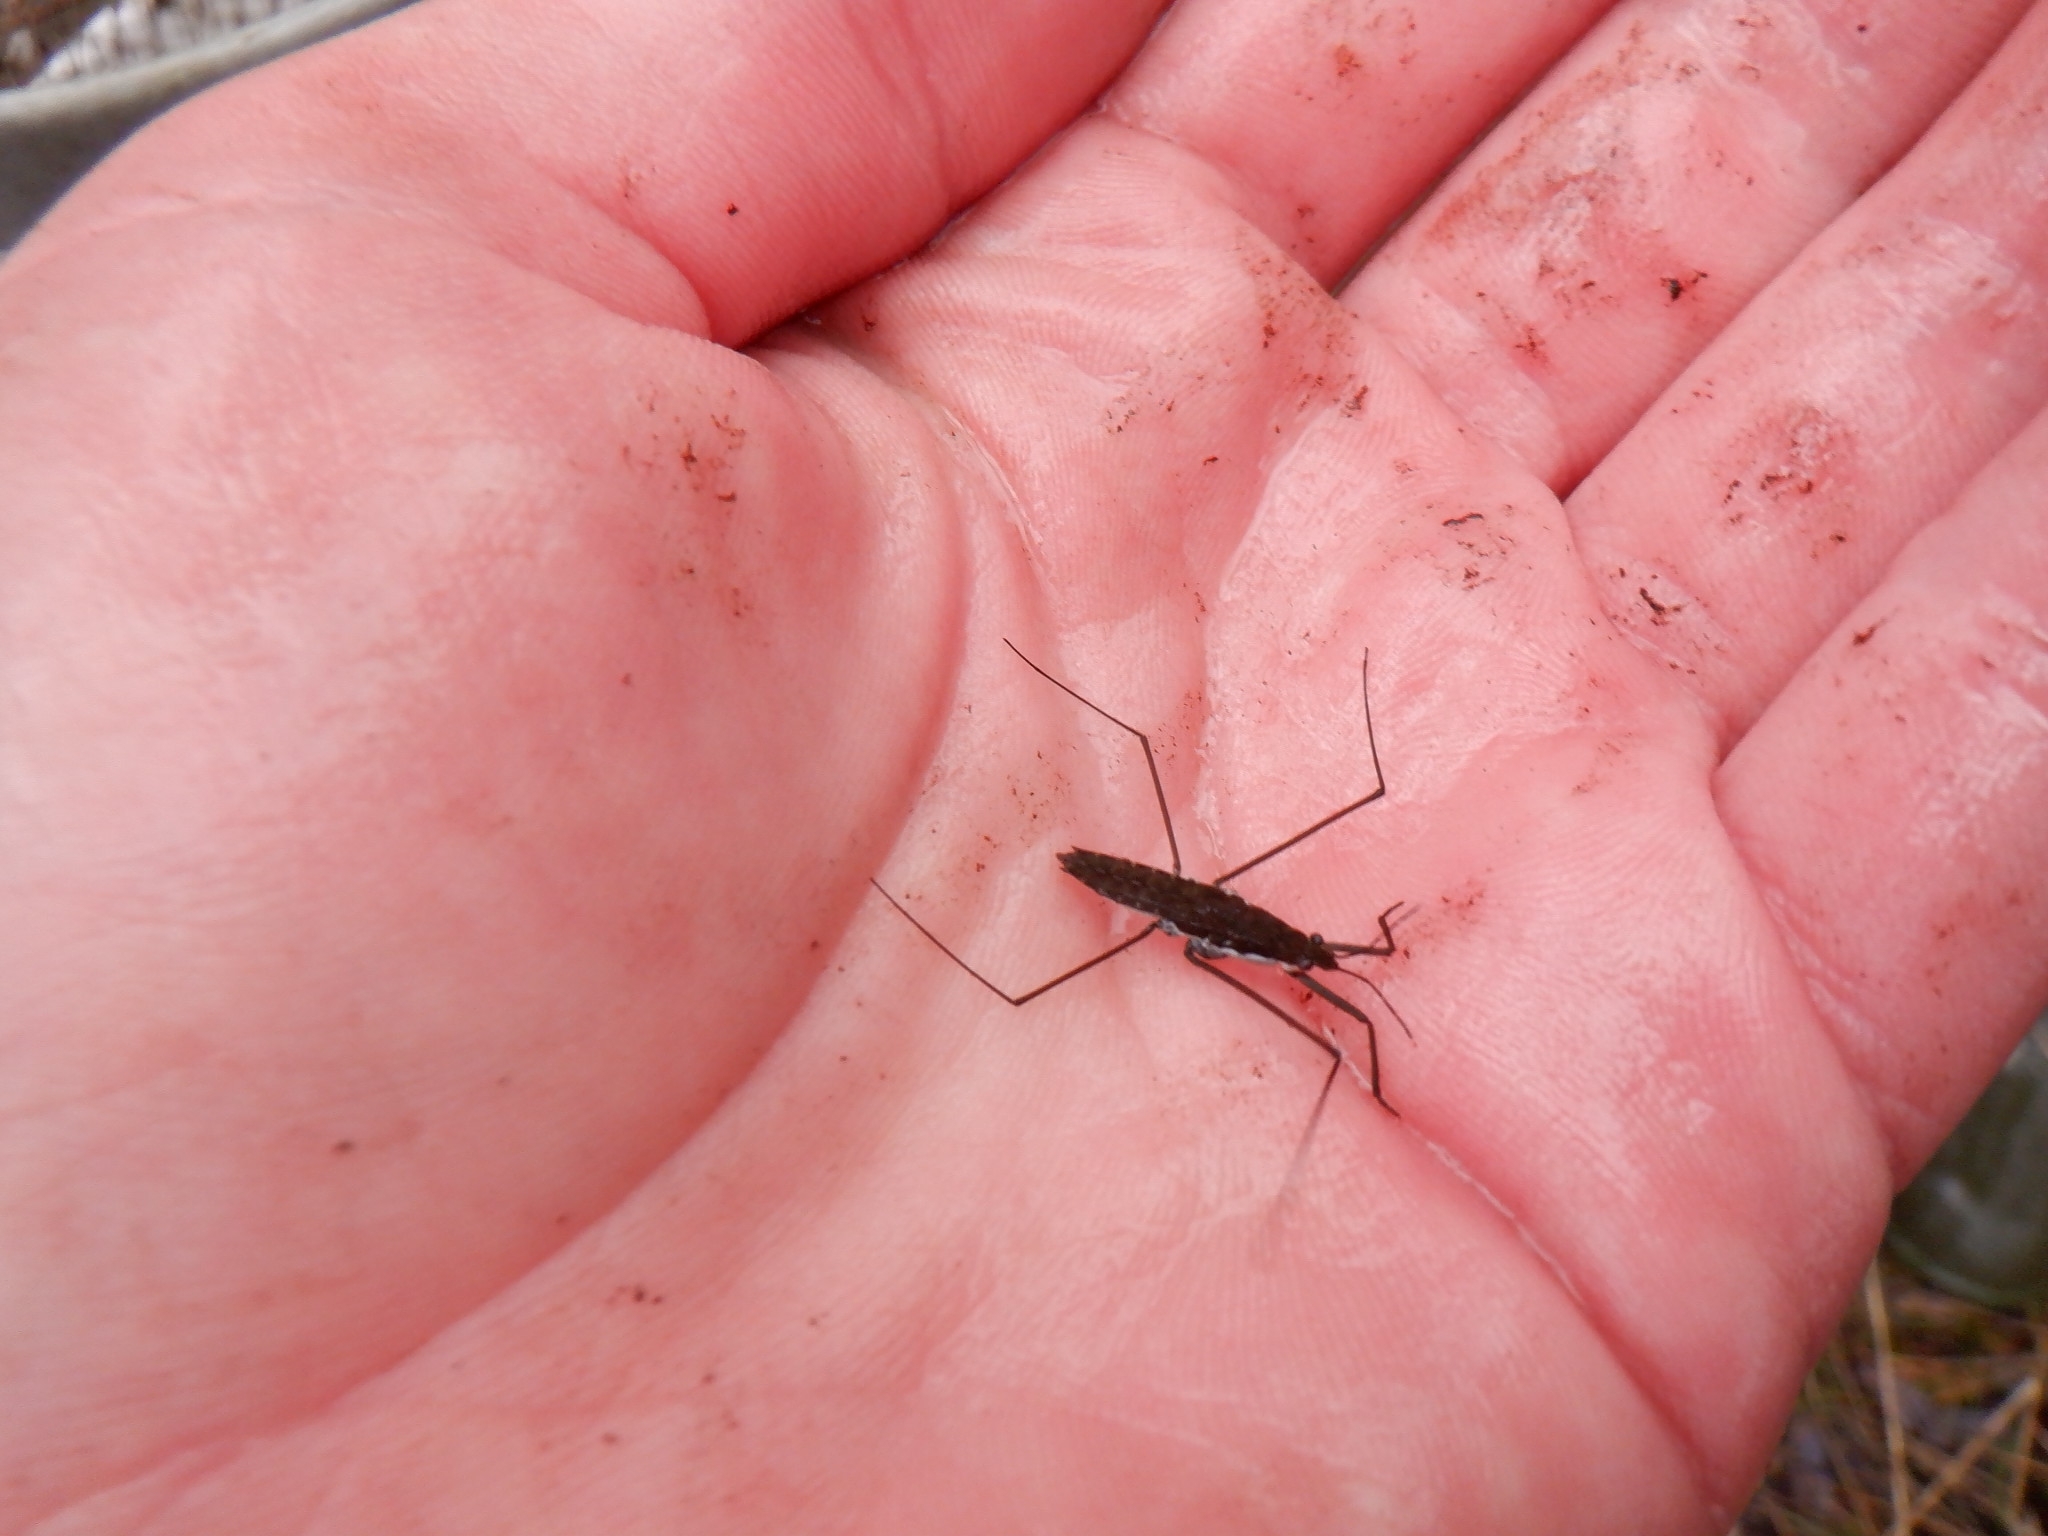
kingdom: Animalia
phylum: Arthropoda
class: Insecta
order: Hemiptera
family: Gerridae
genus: Aquarius
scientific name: Aquarius remigis
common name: Common water strider
